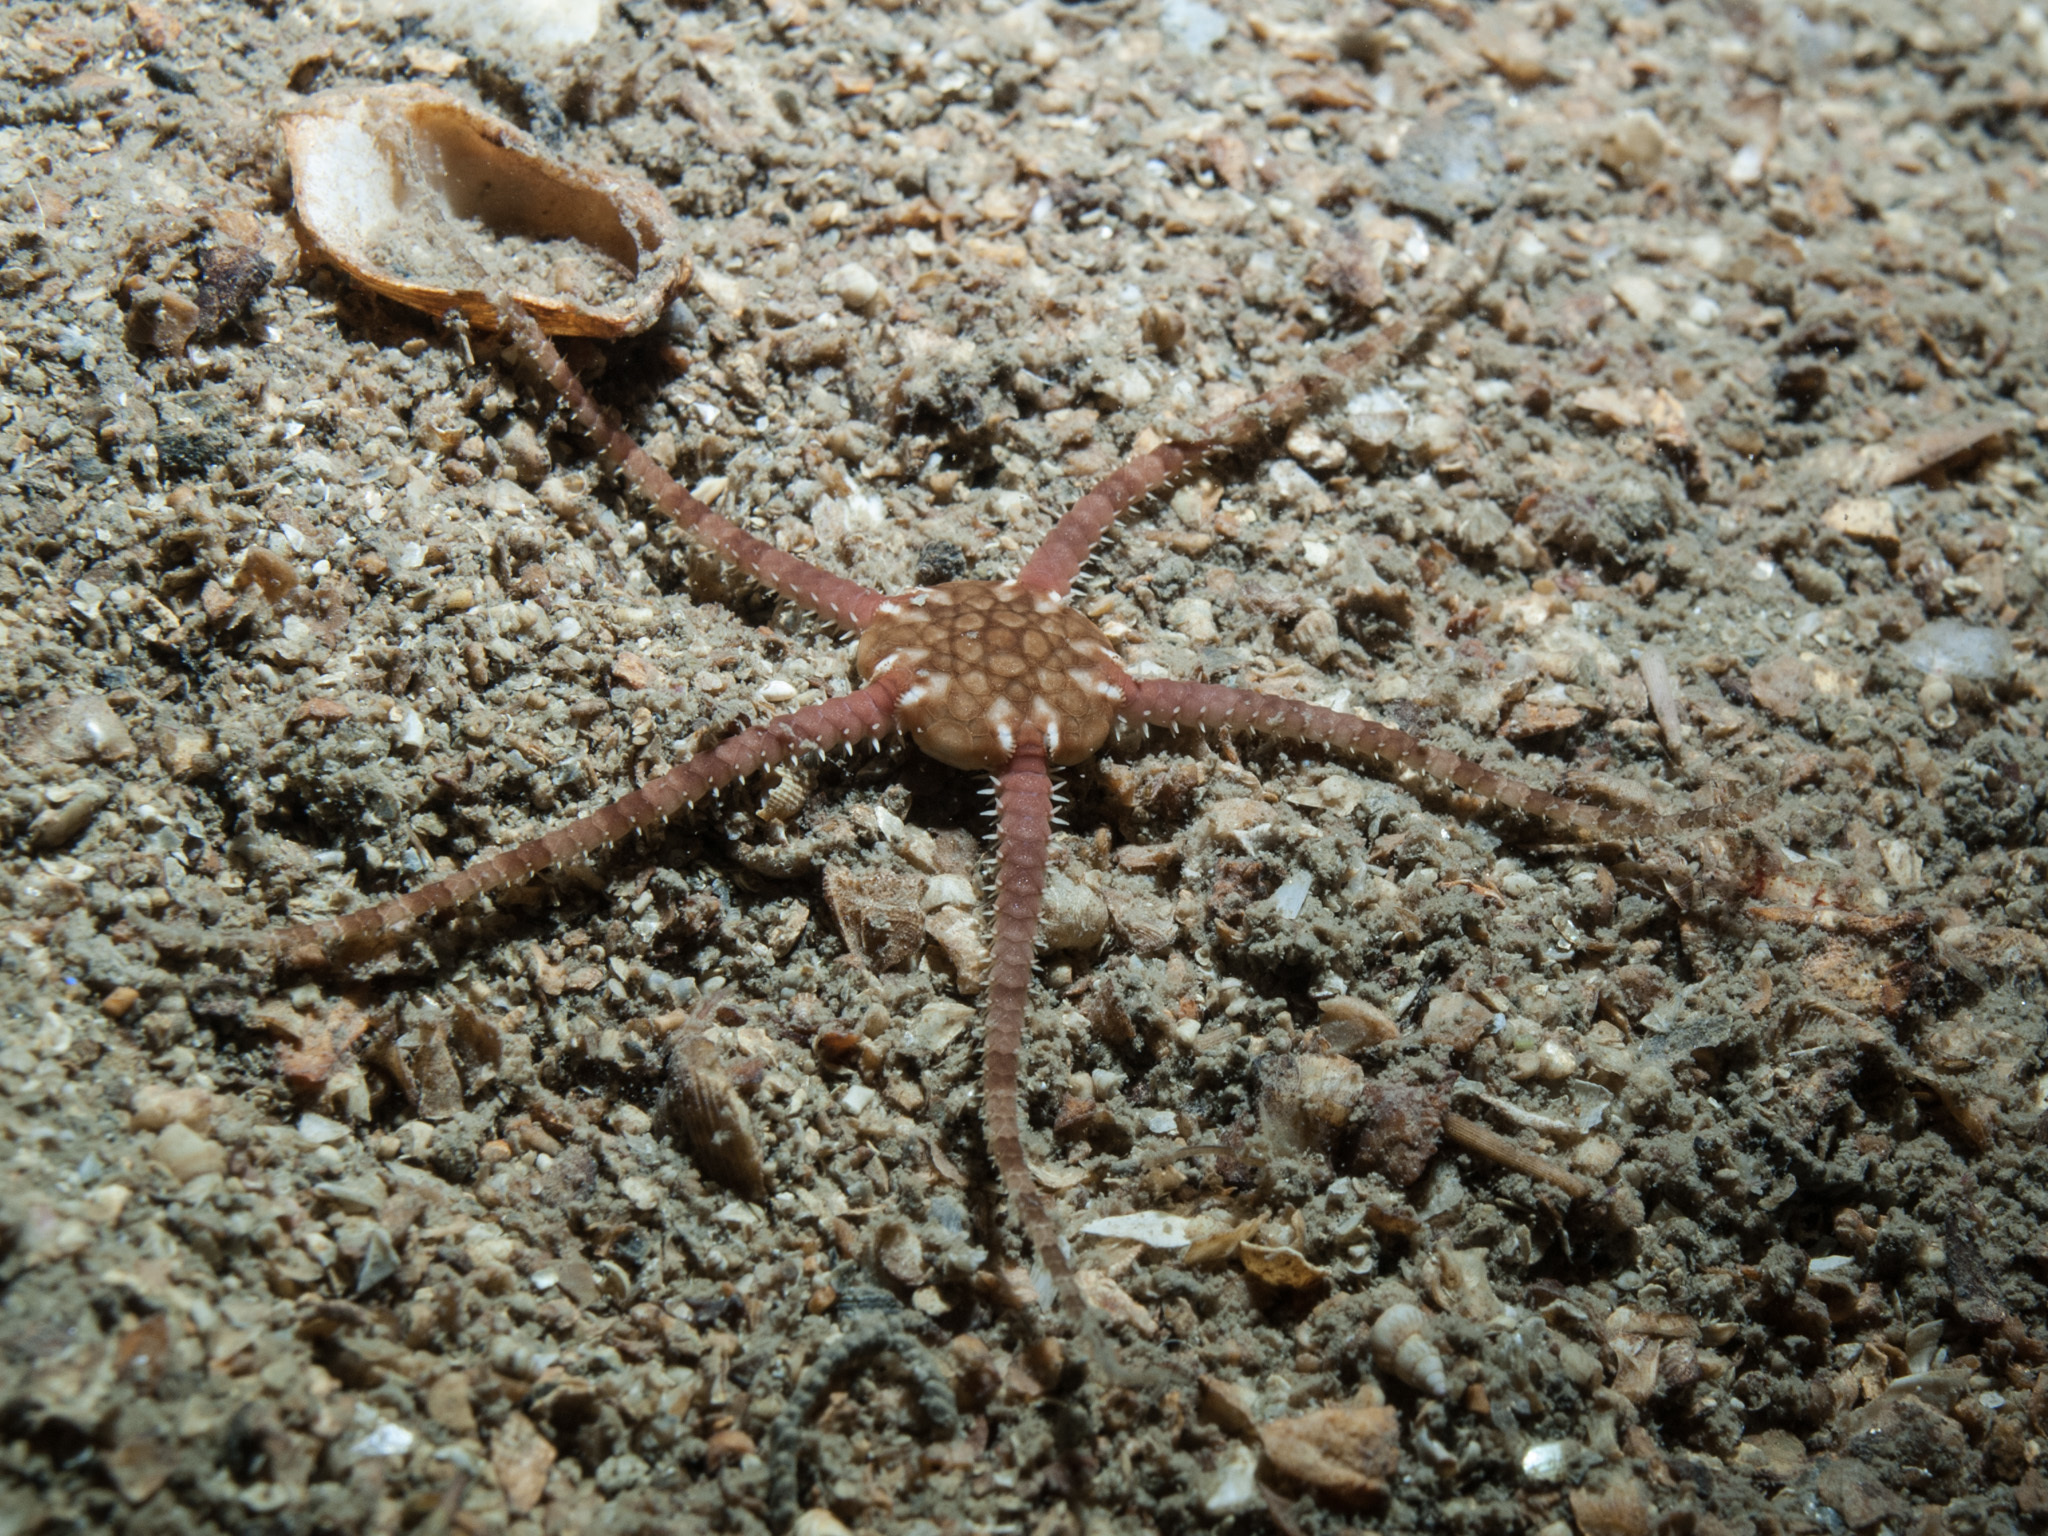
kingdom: Animalia
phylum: Echinodermata
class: Ophiuroidea
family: Ophiuridae
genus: Ophiura
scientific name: Ophiura albida
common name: Serpent's table brittlestar
